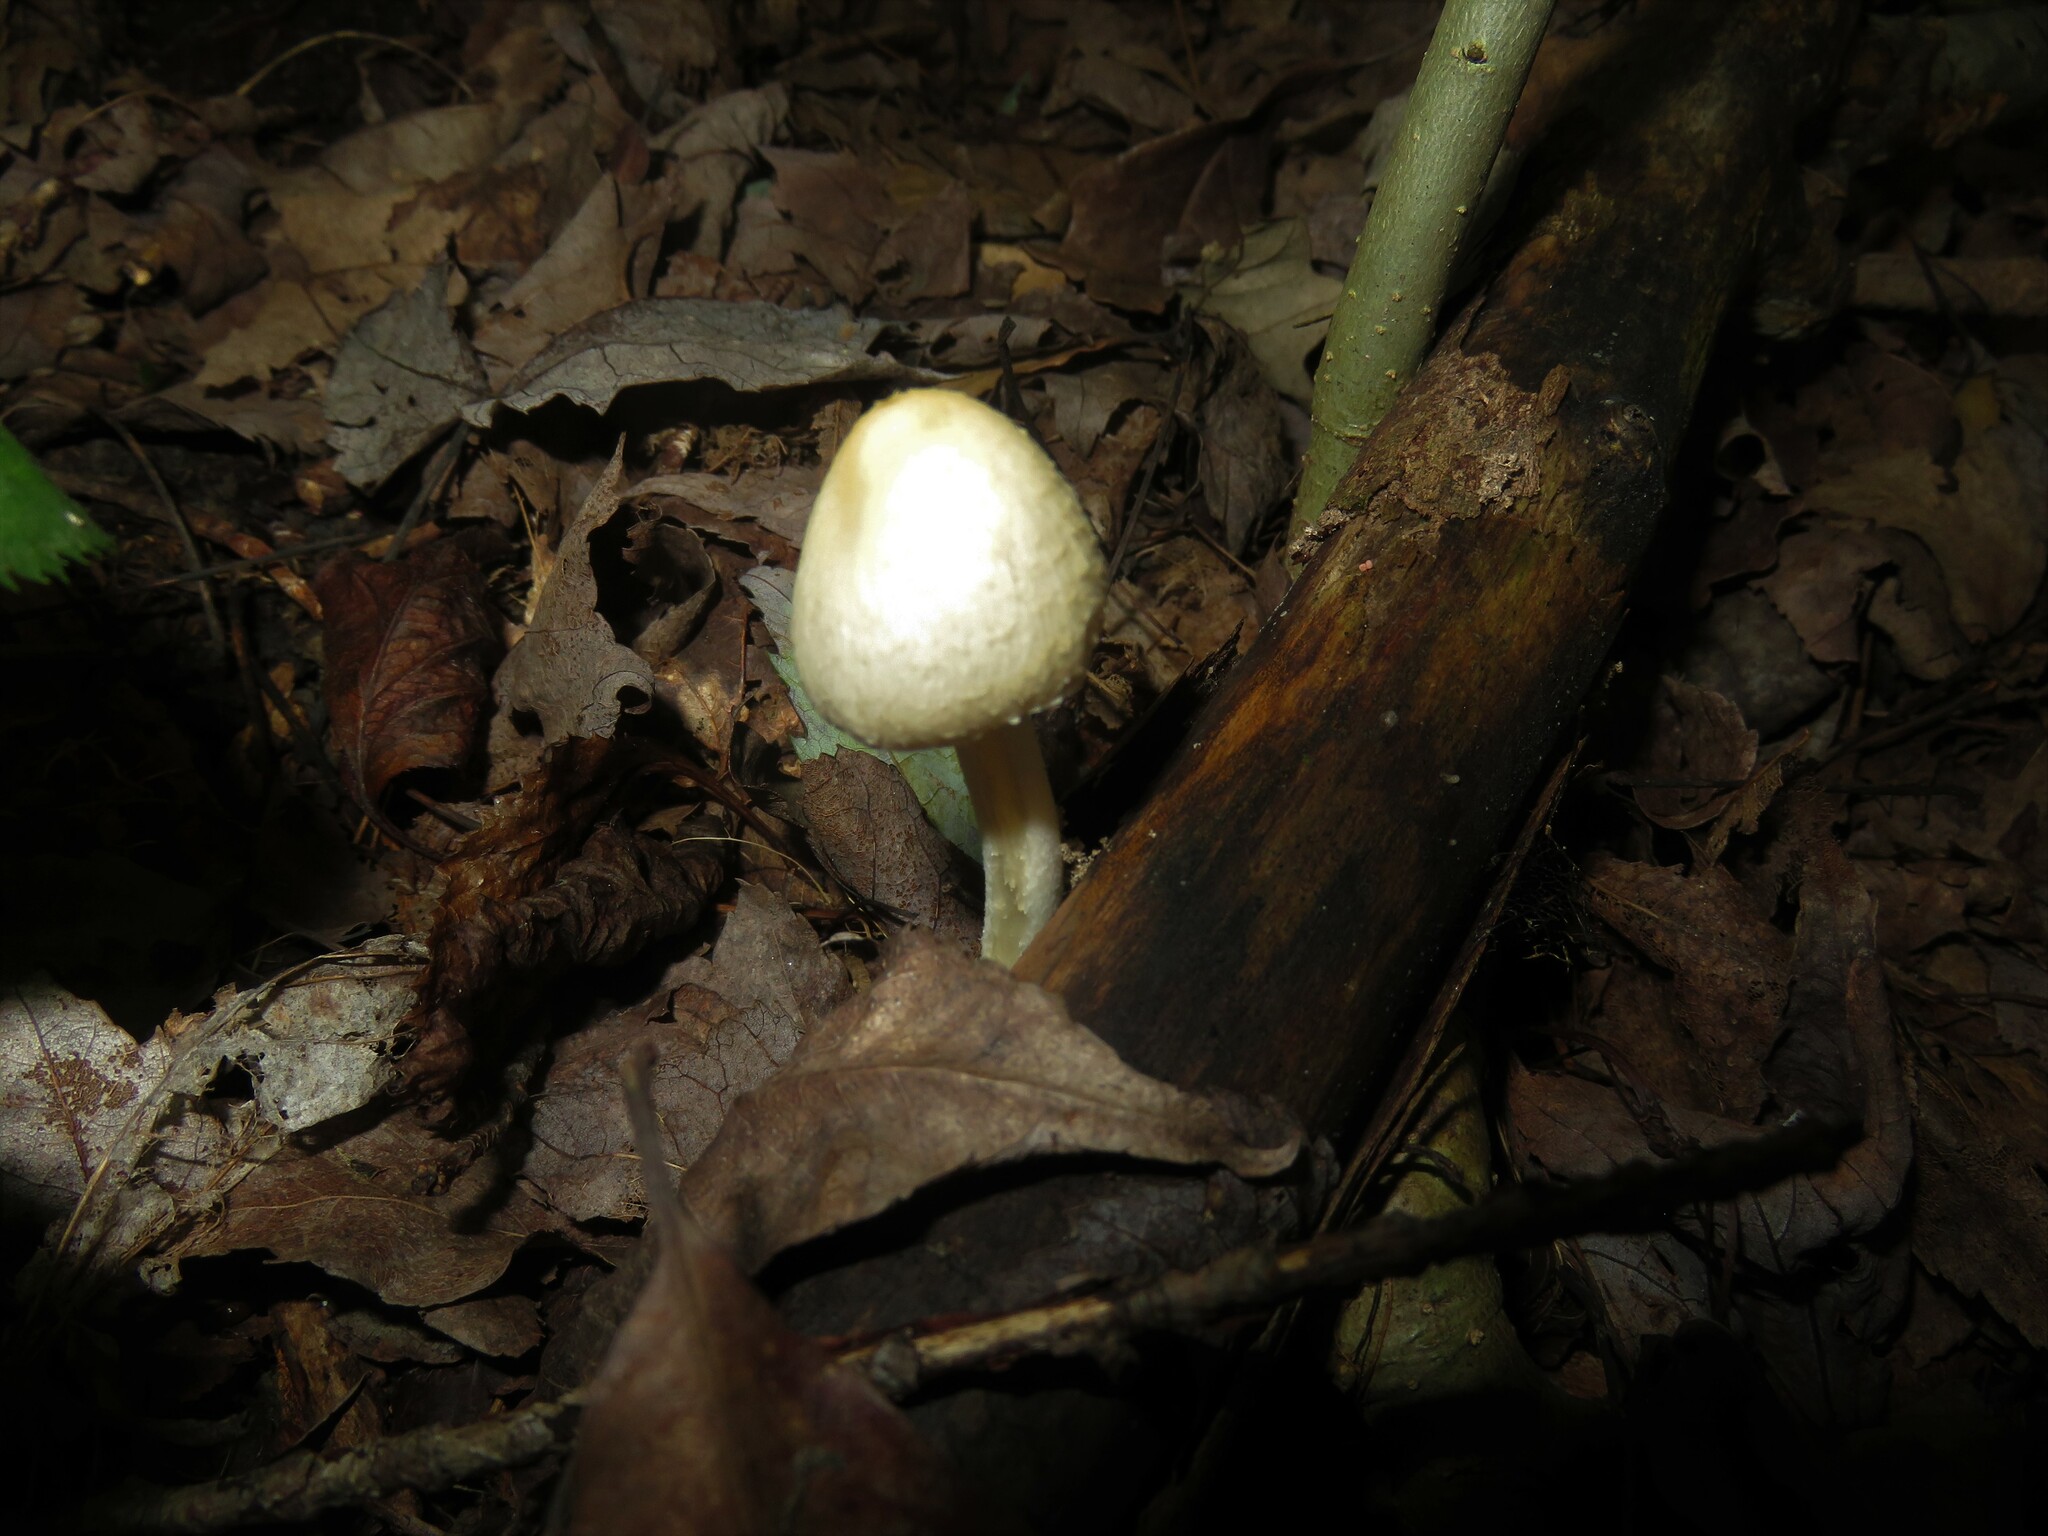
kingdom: Fungi
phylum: Basidiomycota
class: Agaricomycetes
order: Agaricales
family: Psathyrellaceae
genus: Candolleomyces
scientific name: Candolleomyces candolleanus
